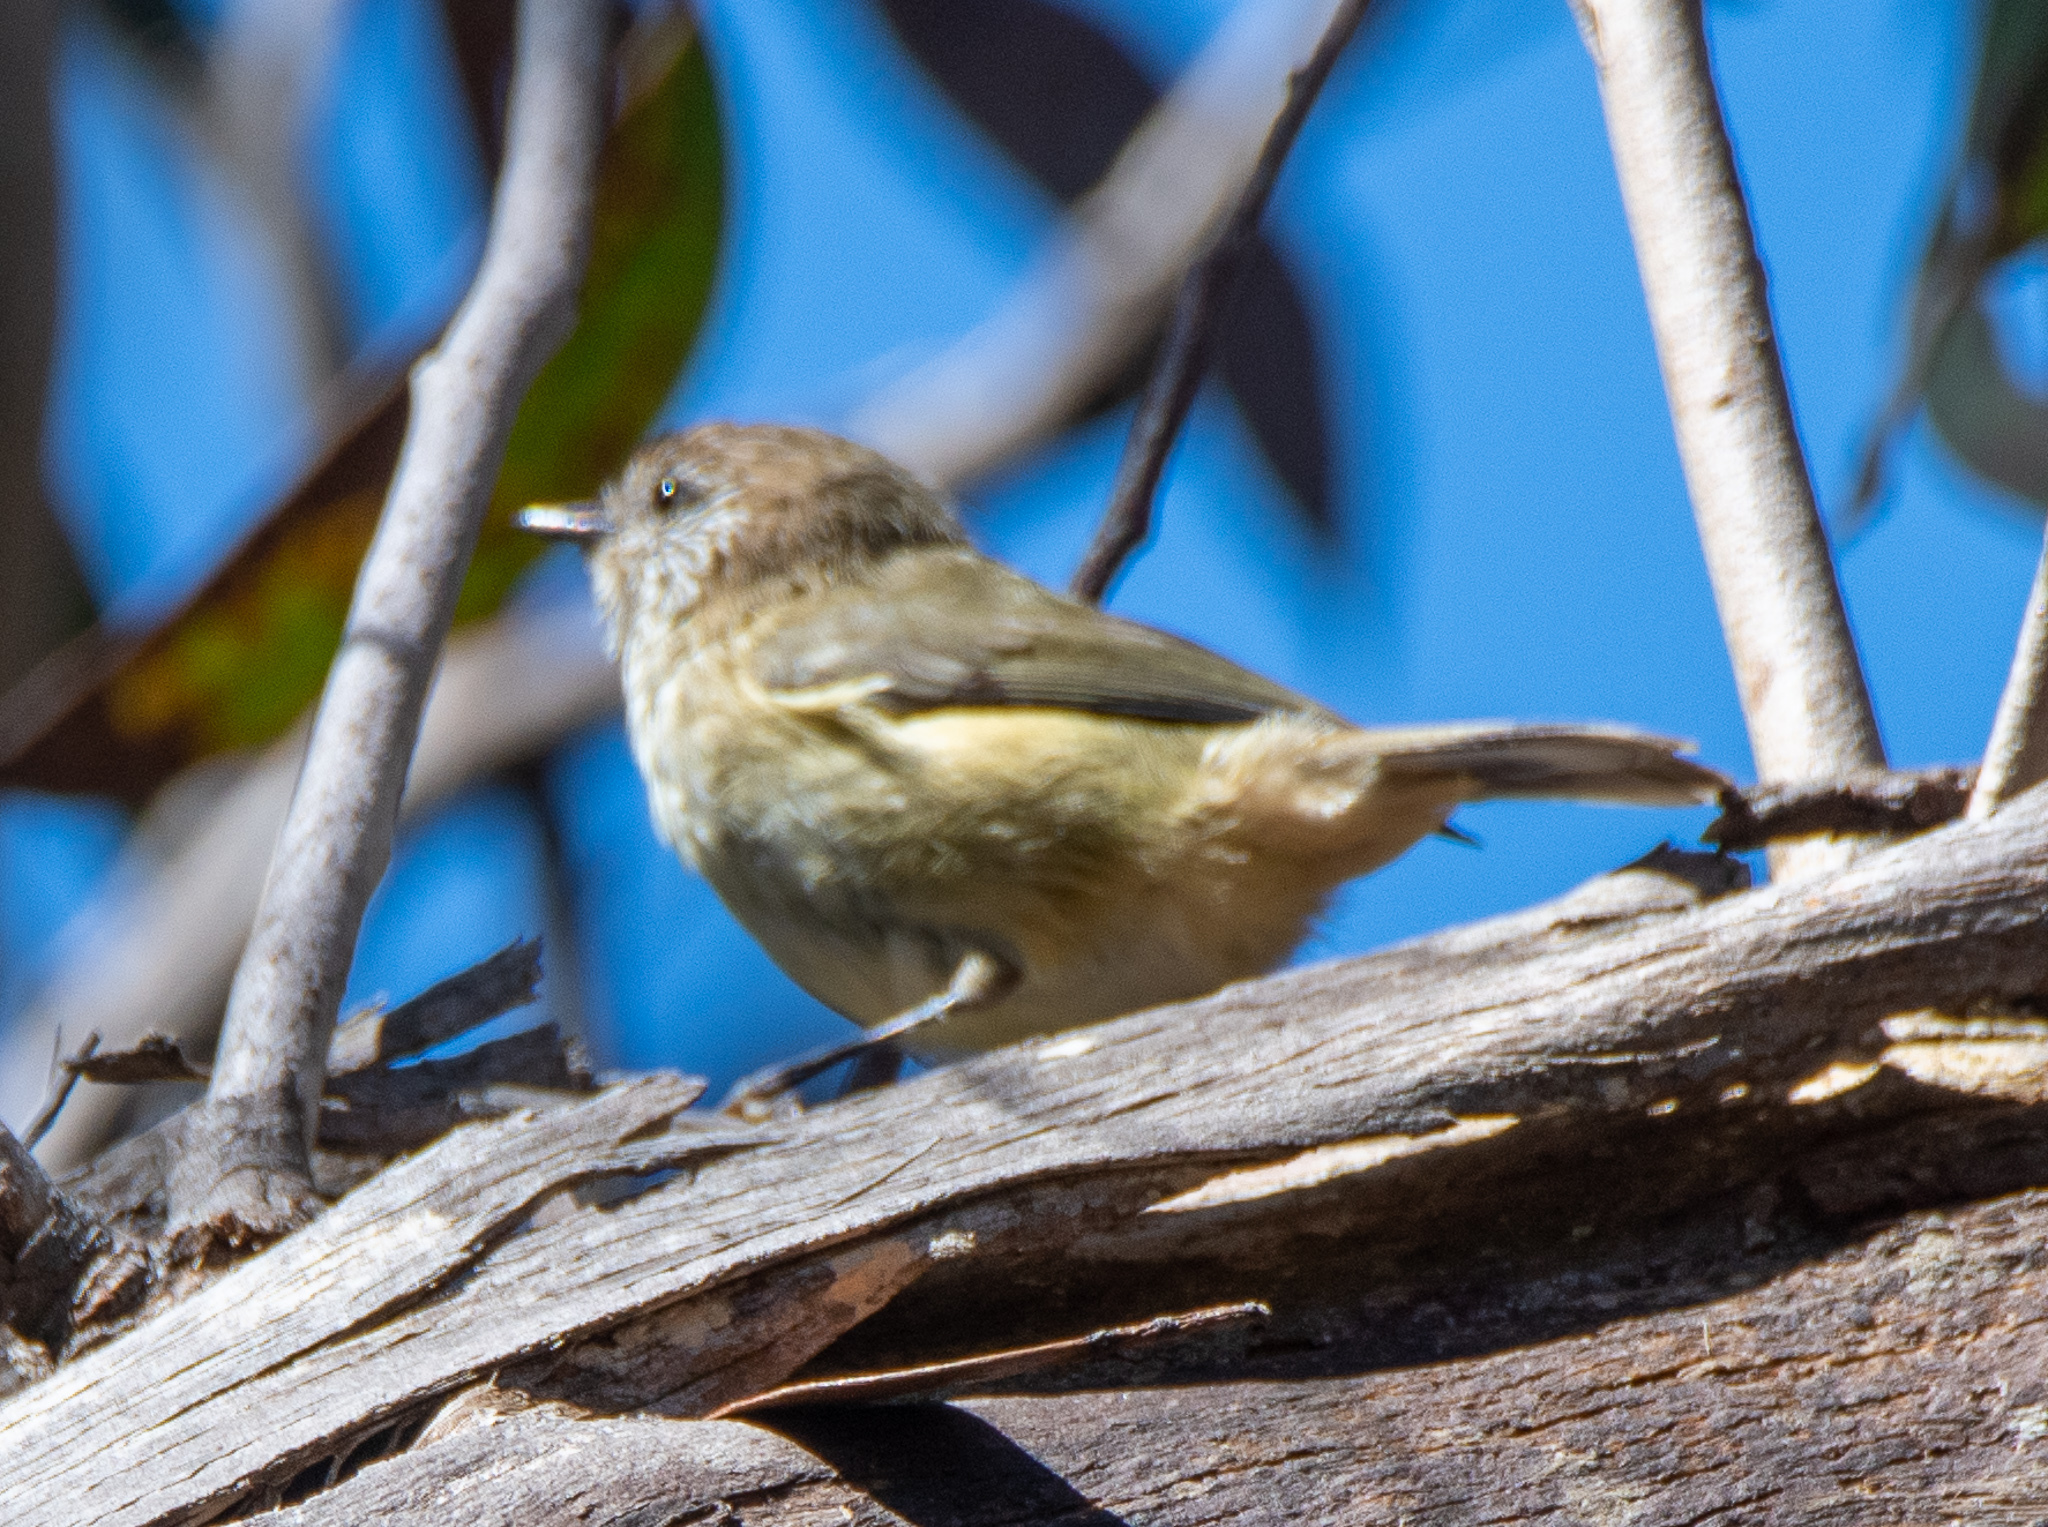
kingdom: Animalia
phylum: Chordata
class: Aves
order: Passeriformes
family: Acanthizidae
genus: Acanthiza
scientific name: Acanthiza lineata
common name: Striated thornbill
